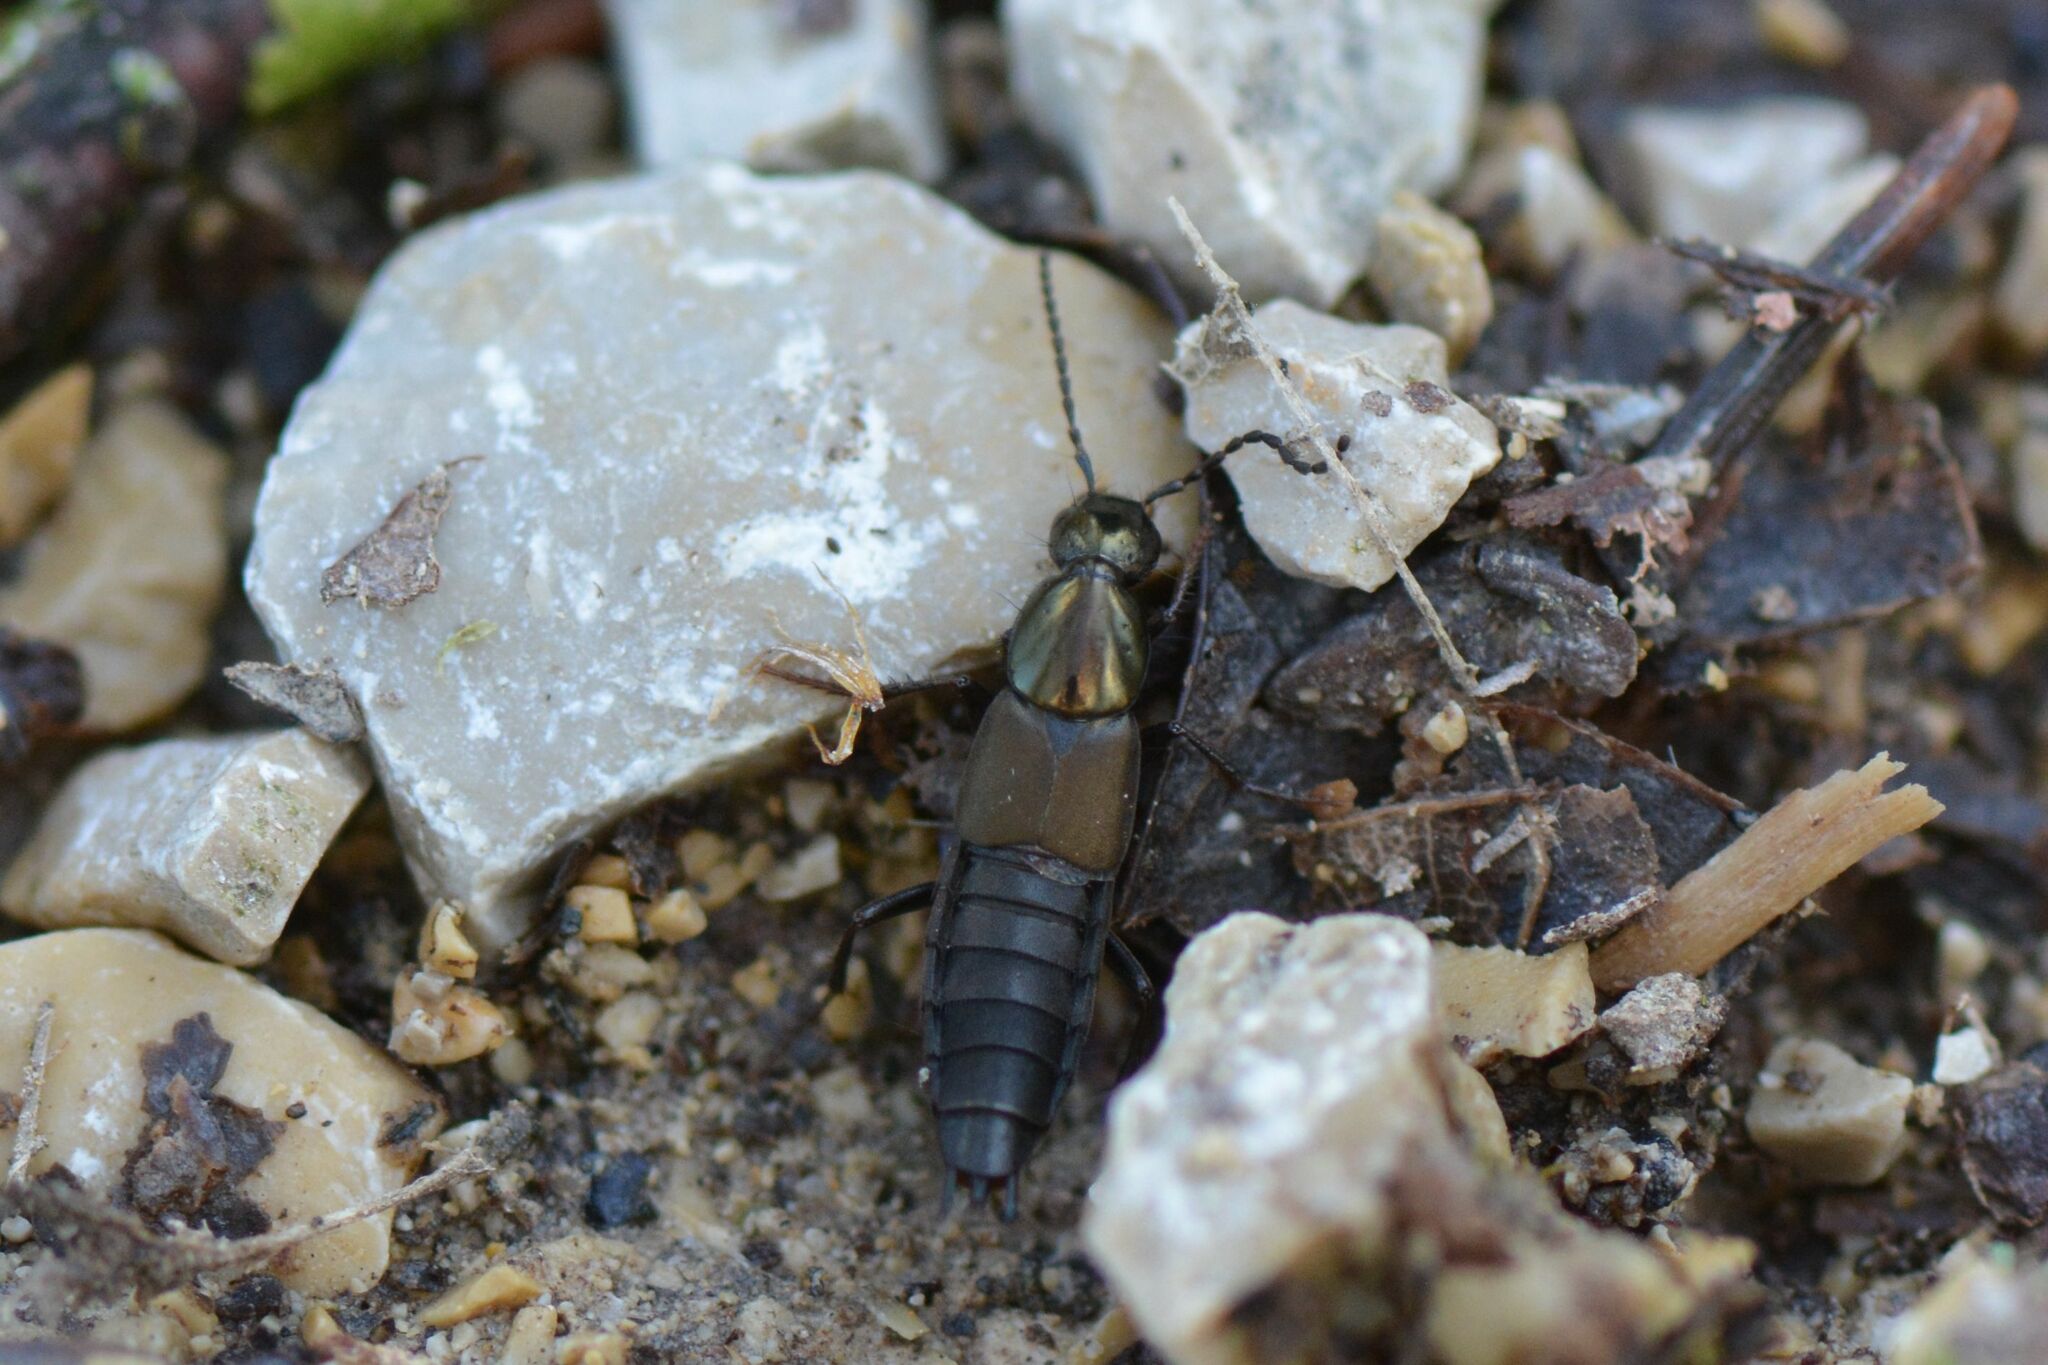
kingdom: Animalia
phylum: Arthropoda
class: Insecta
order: Coleoptera
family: Staphylinidae
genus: Philonthus
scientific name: Philonthus decorus
